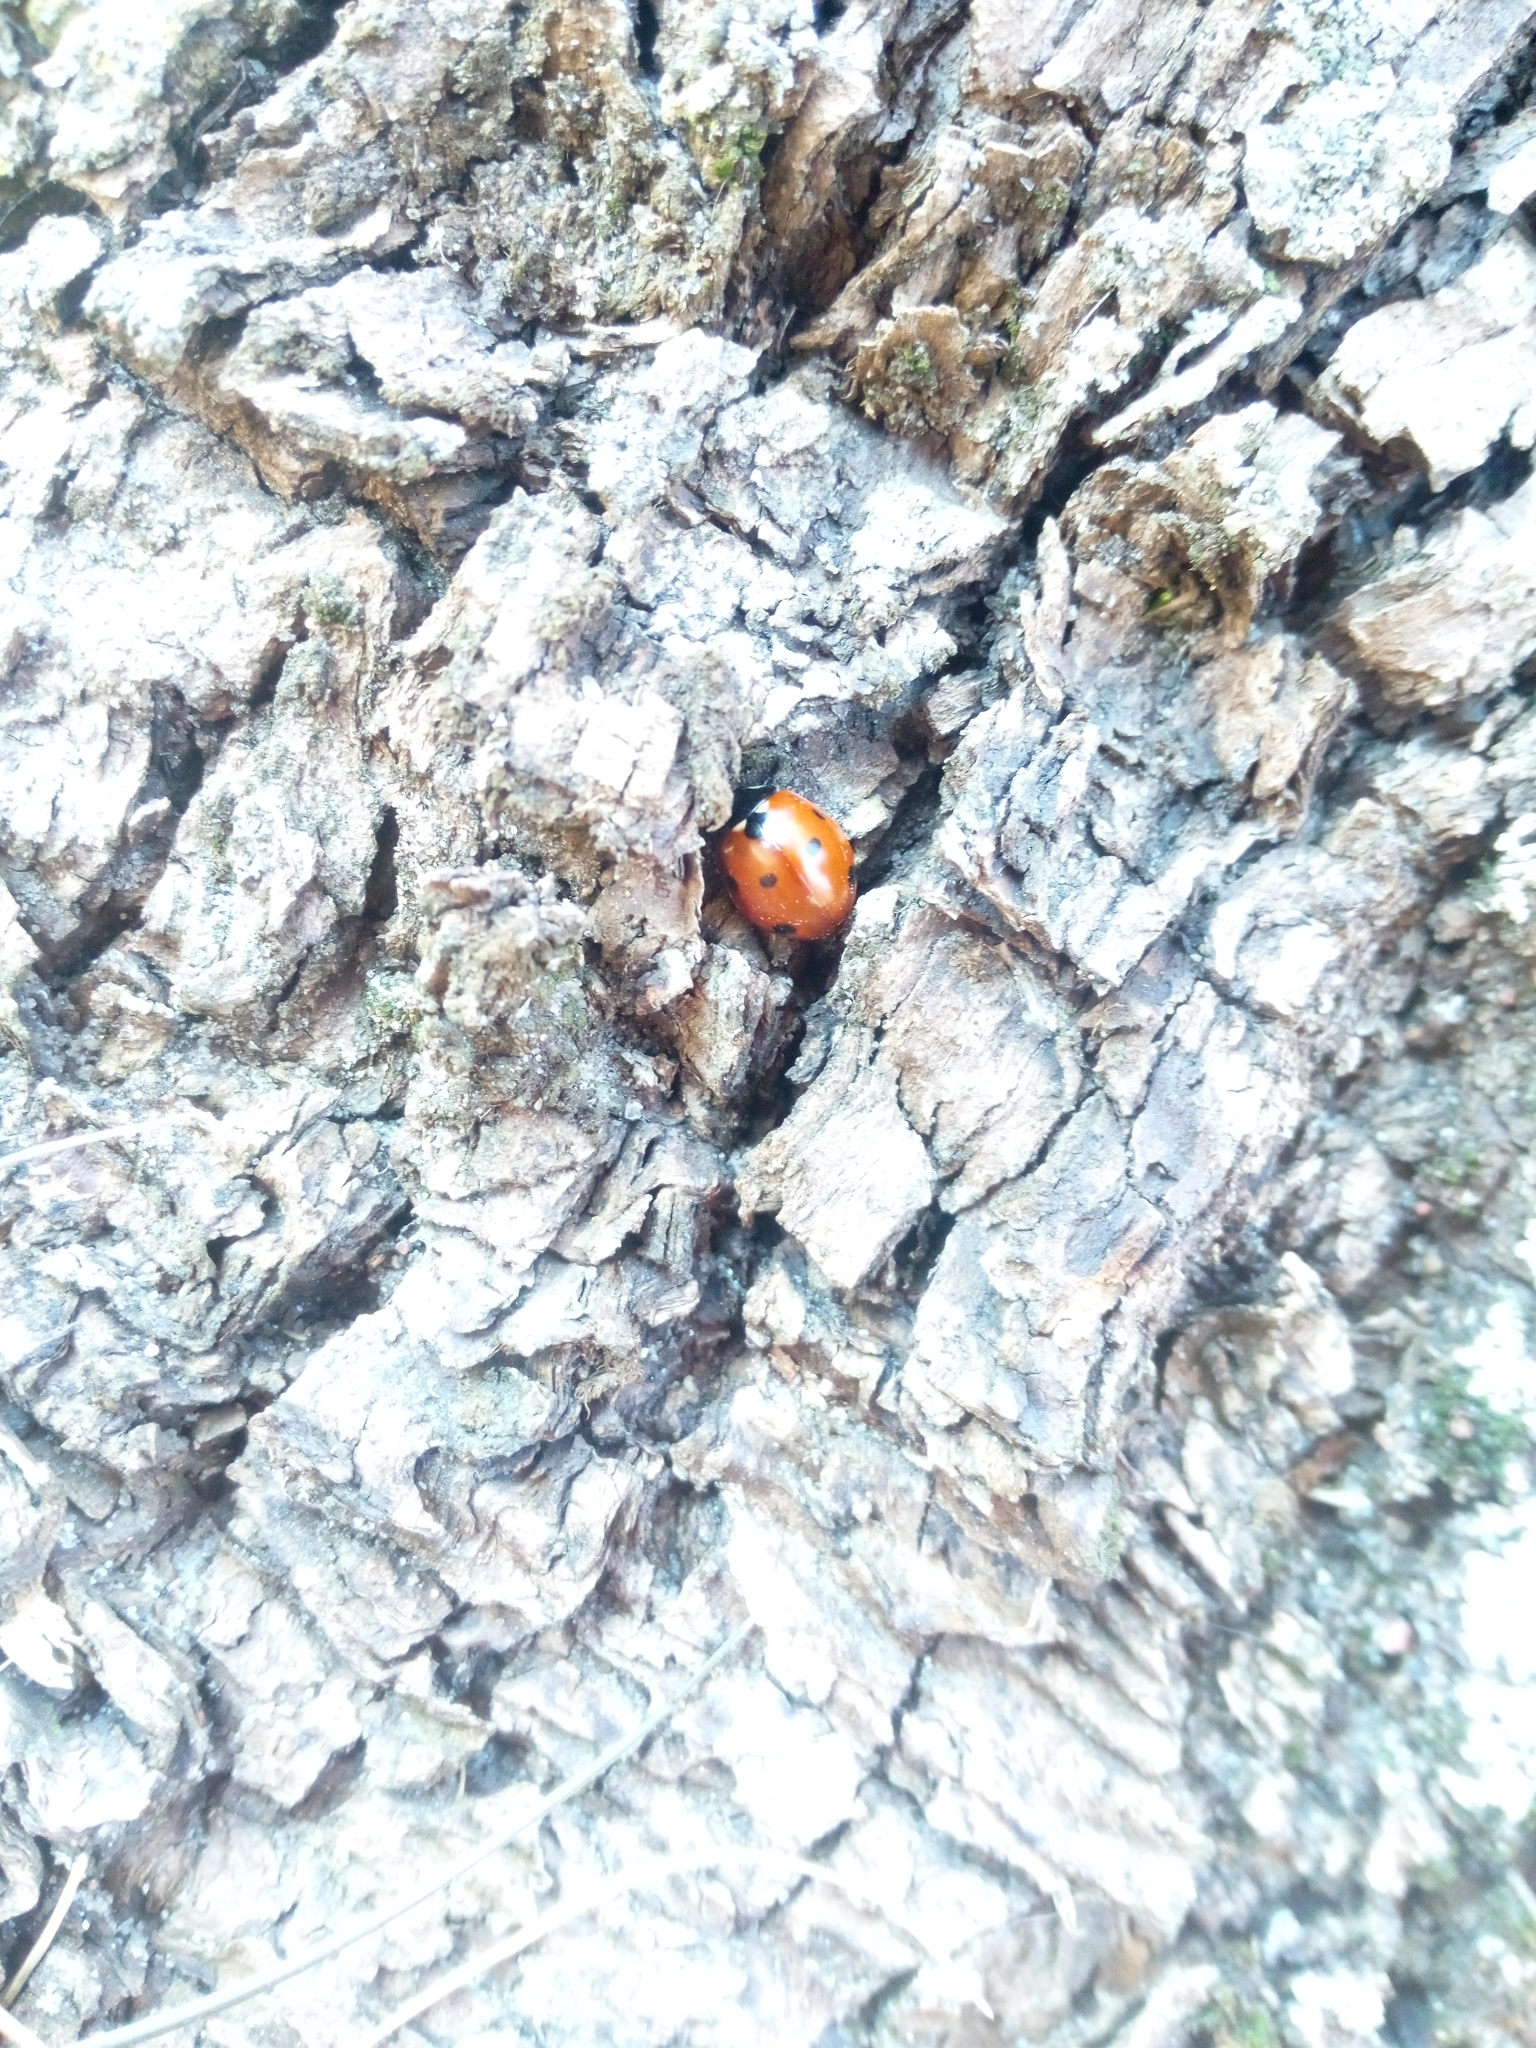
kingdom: Animalia
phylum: Arthropoda
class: Insecta
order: Coleoptera
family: Coccinellidae
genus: Coccinella
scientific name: Coccinella septempunctata
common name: Sevenspotted lady beetle
